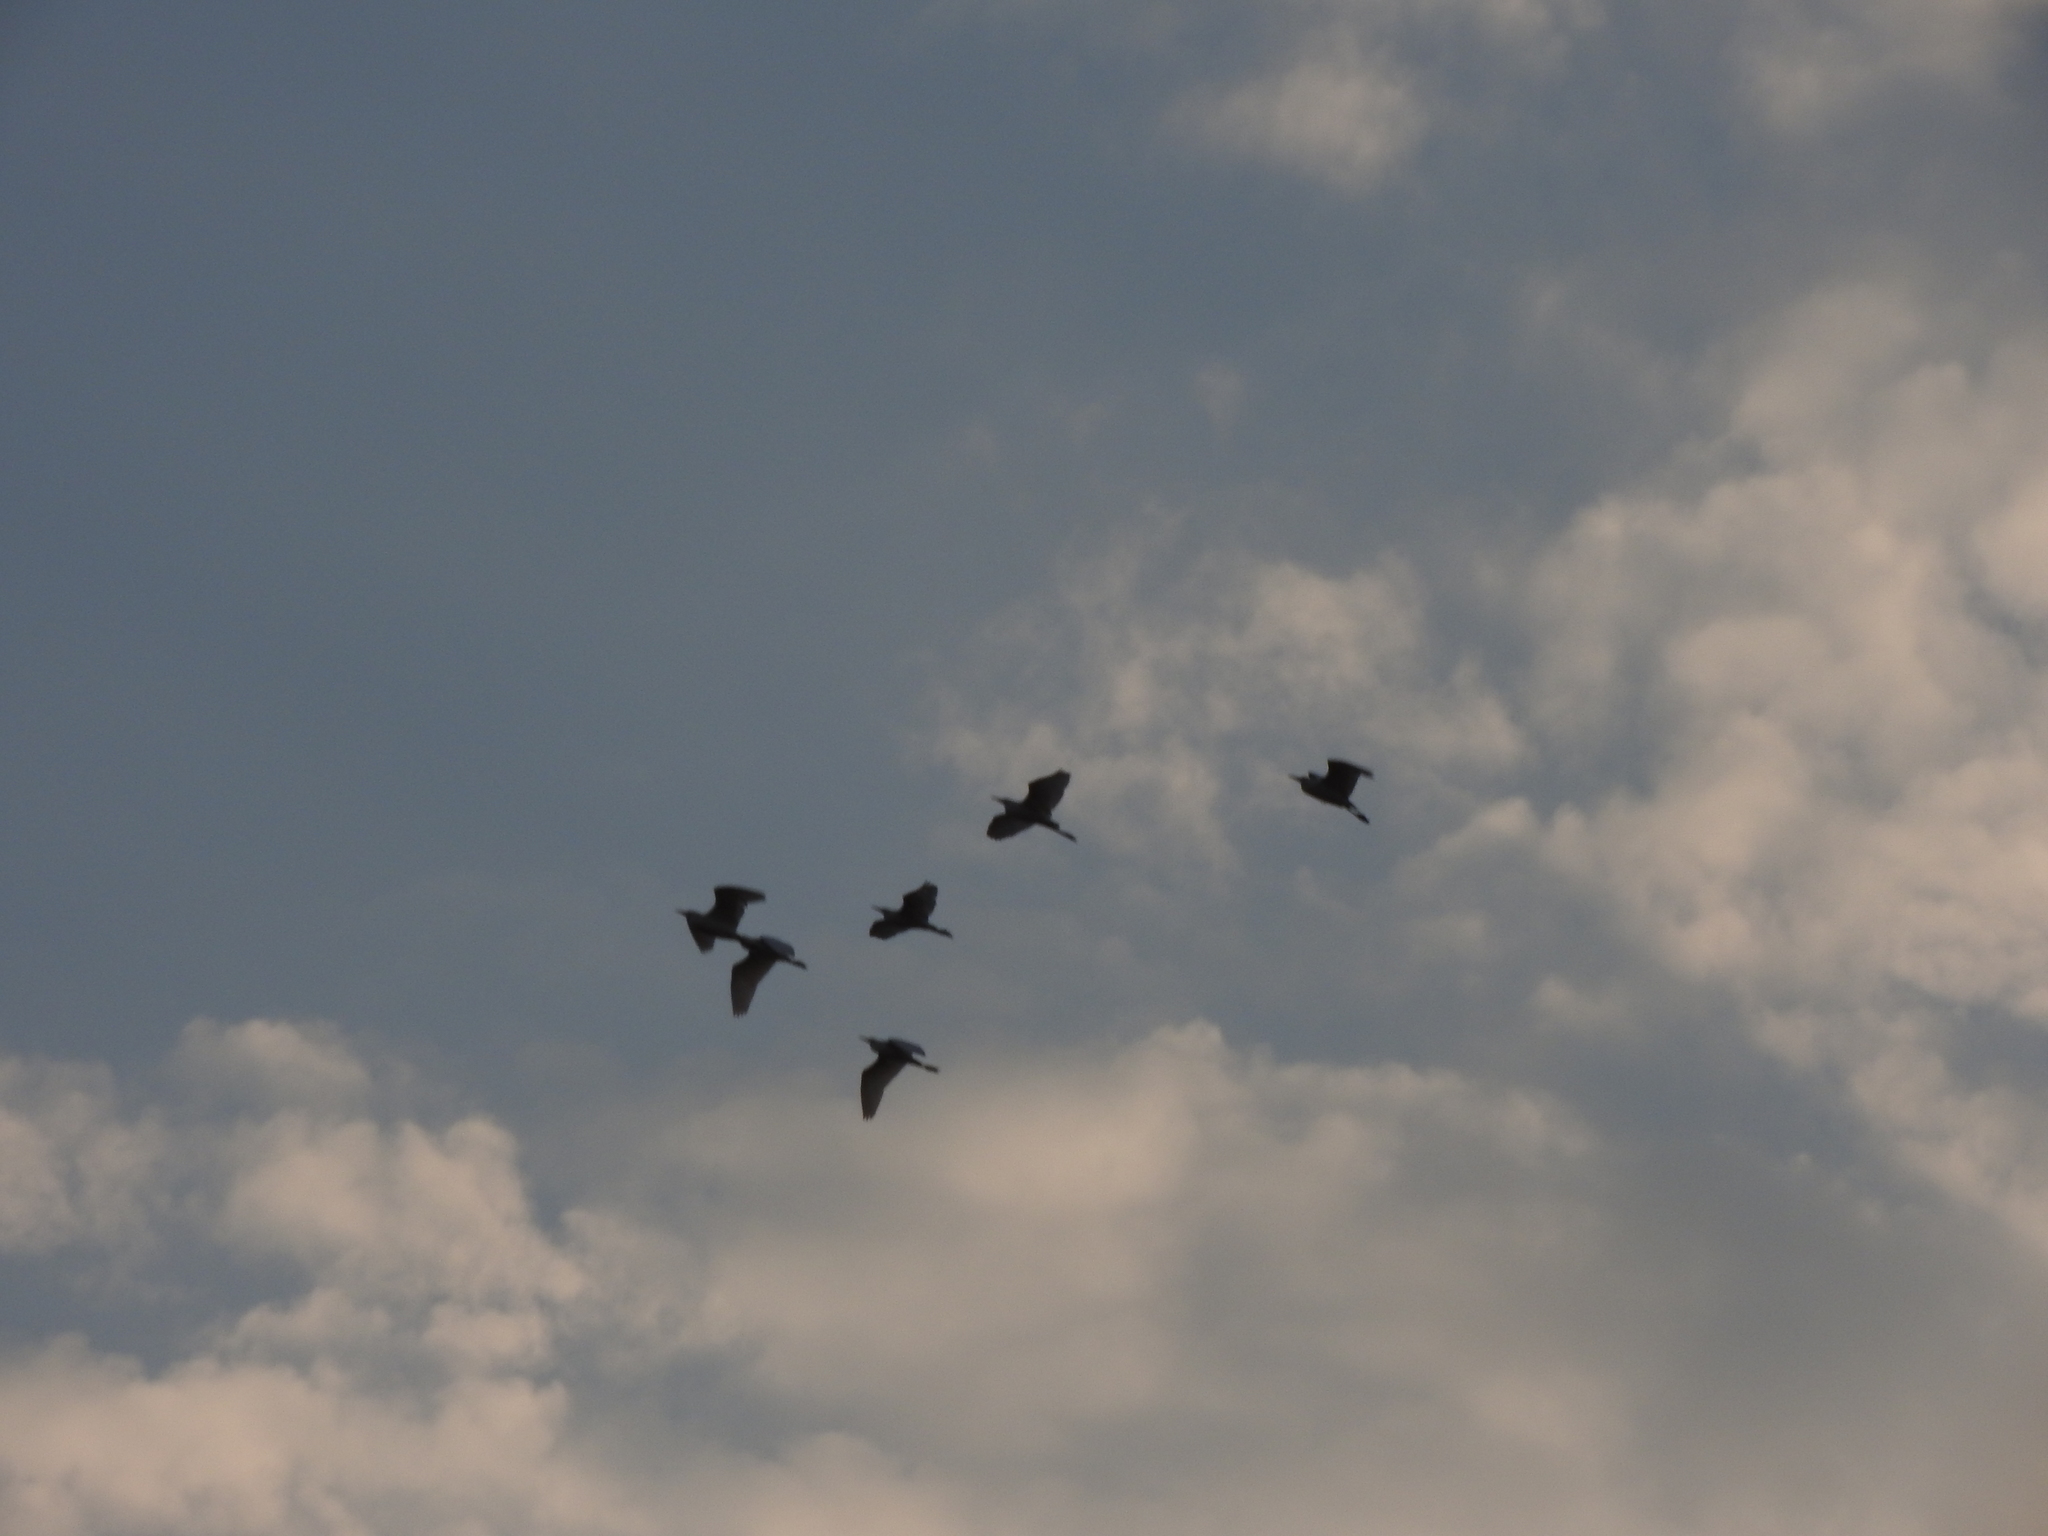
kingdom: Animalia
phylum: Chordata
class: Aves
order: Pelecaniformes
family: Ardeidae
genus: Bubulcus
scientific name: Bubulcus ibis
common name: Cattle egret
